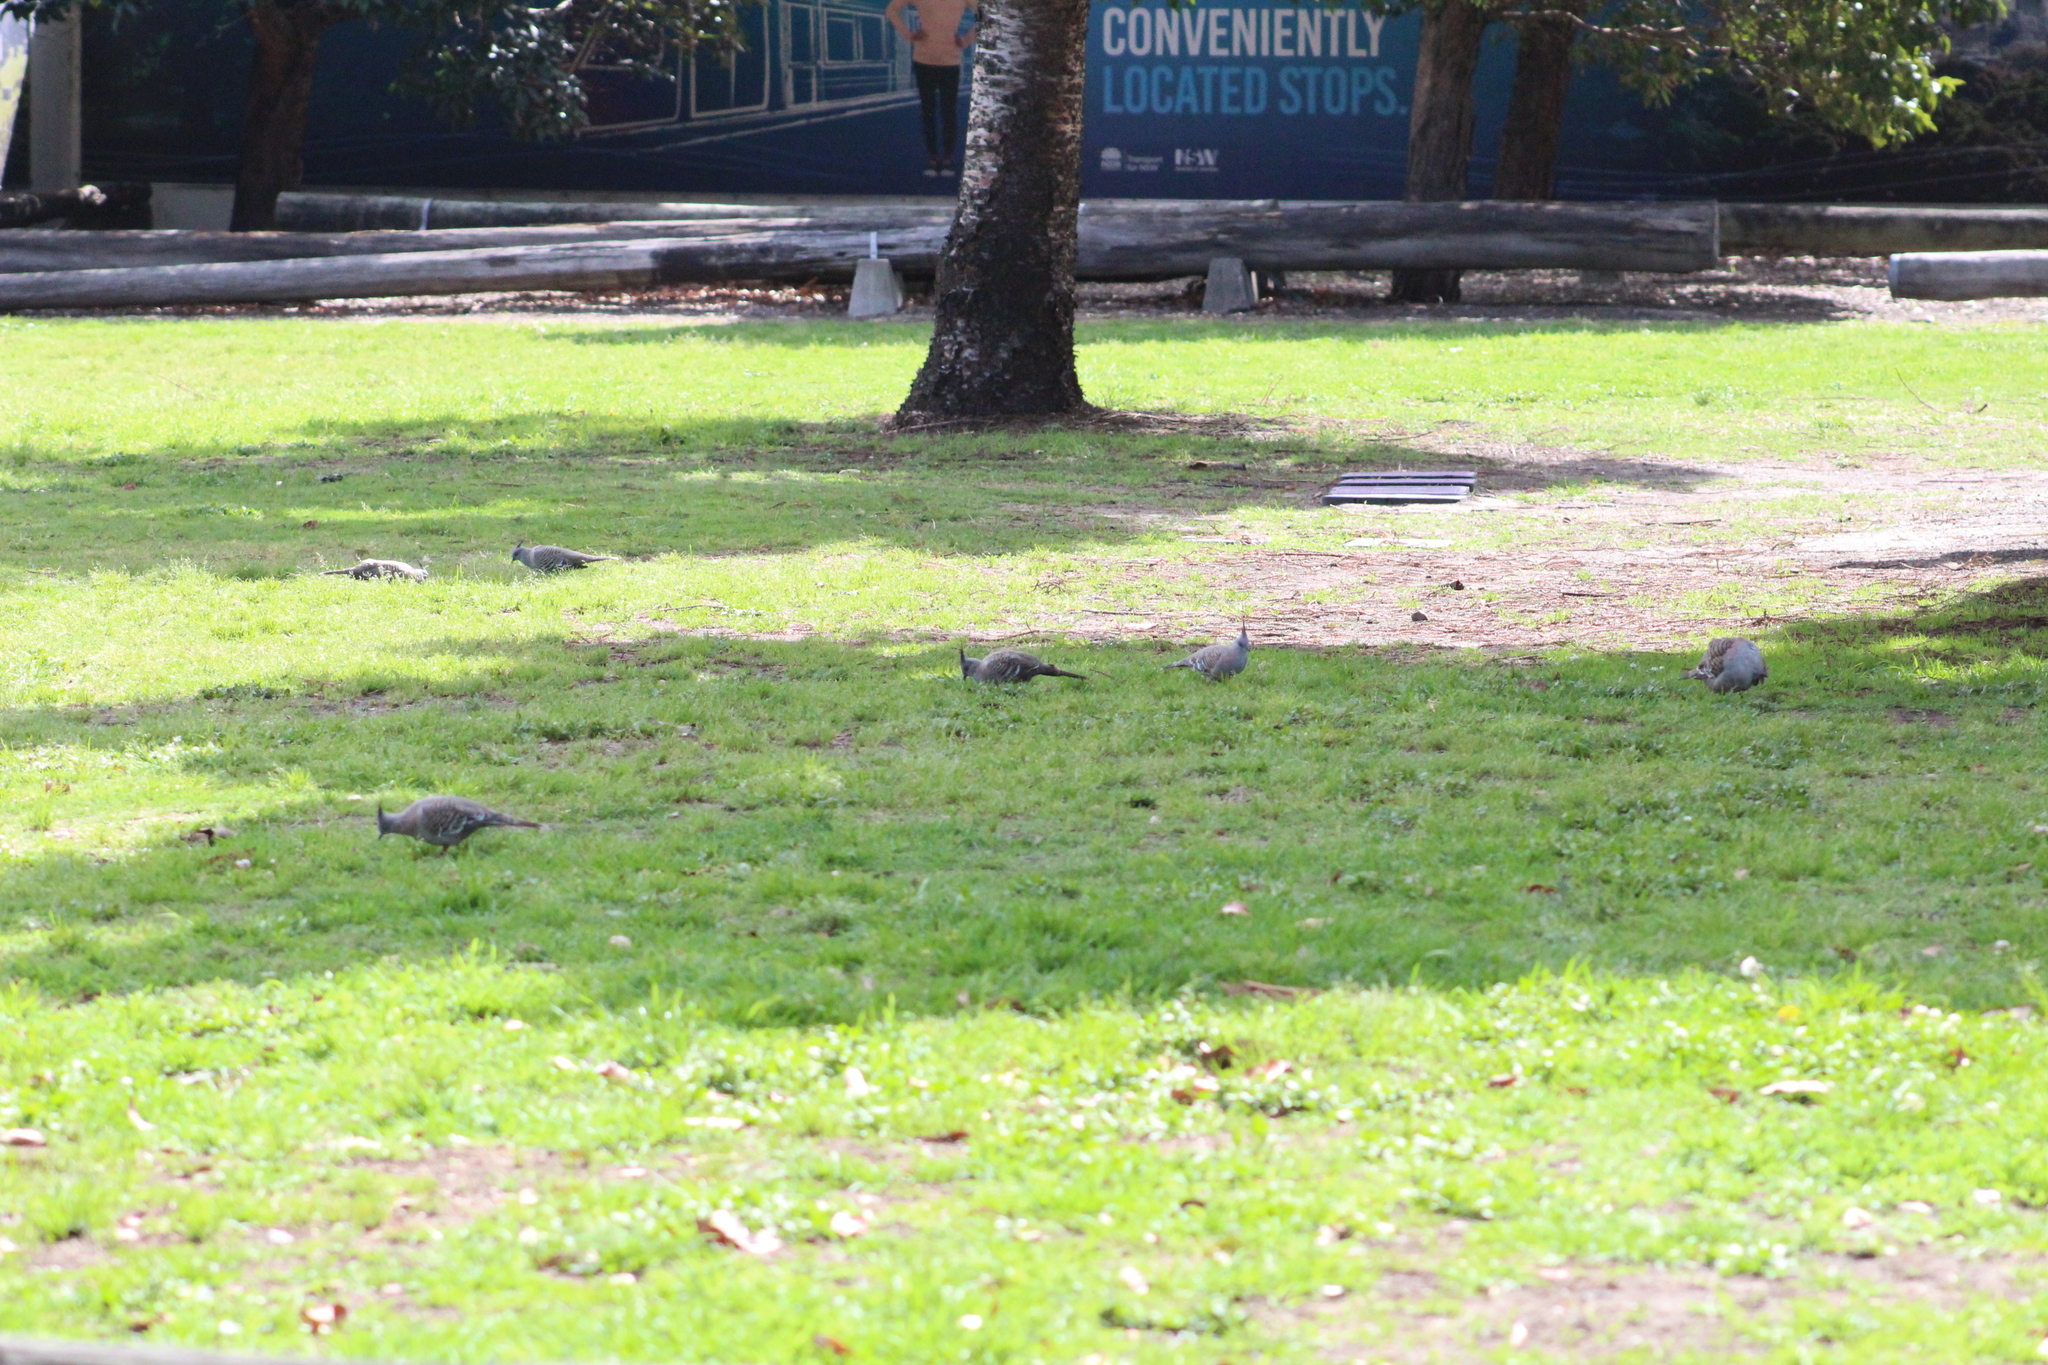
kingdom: Animalia
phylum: Chordata
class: Aves
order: Columbiformes
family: Columbidae
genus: Ocyphaps
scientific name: Ocyphaps lophotes
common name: Crested pigeon
